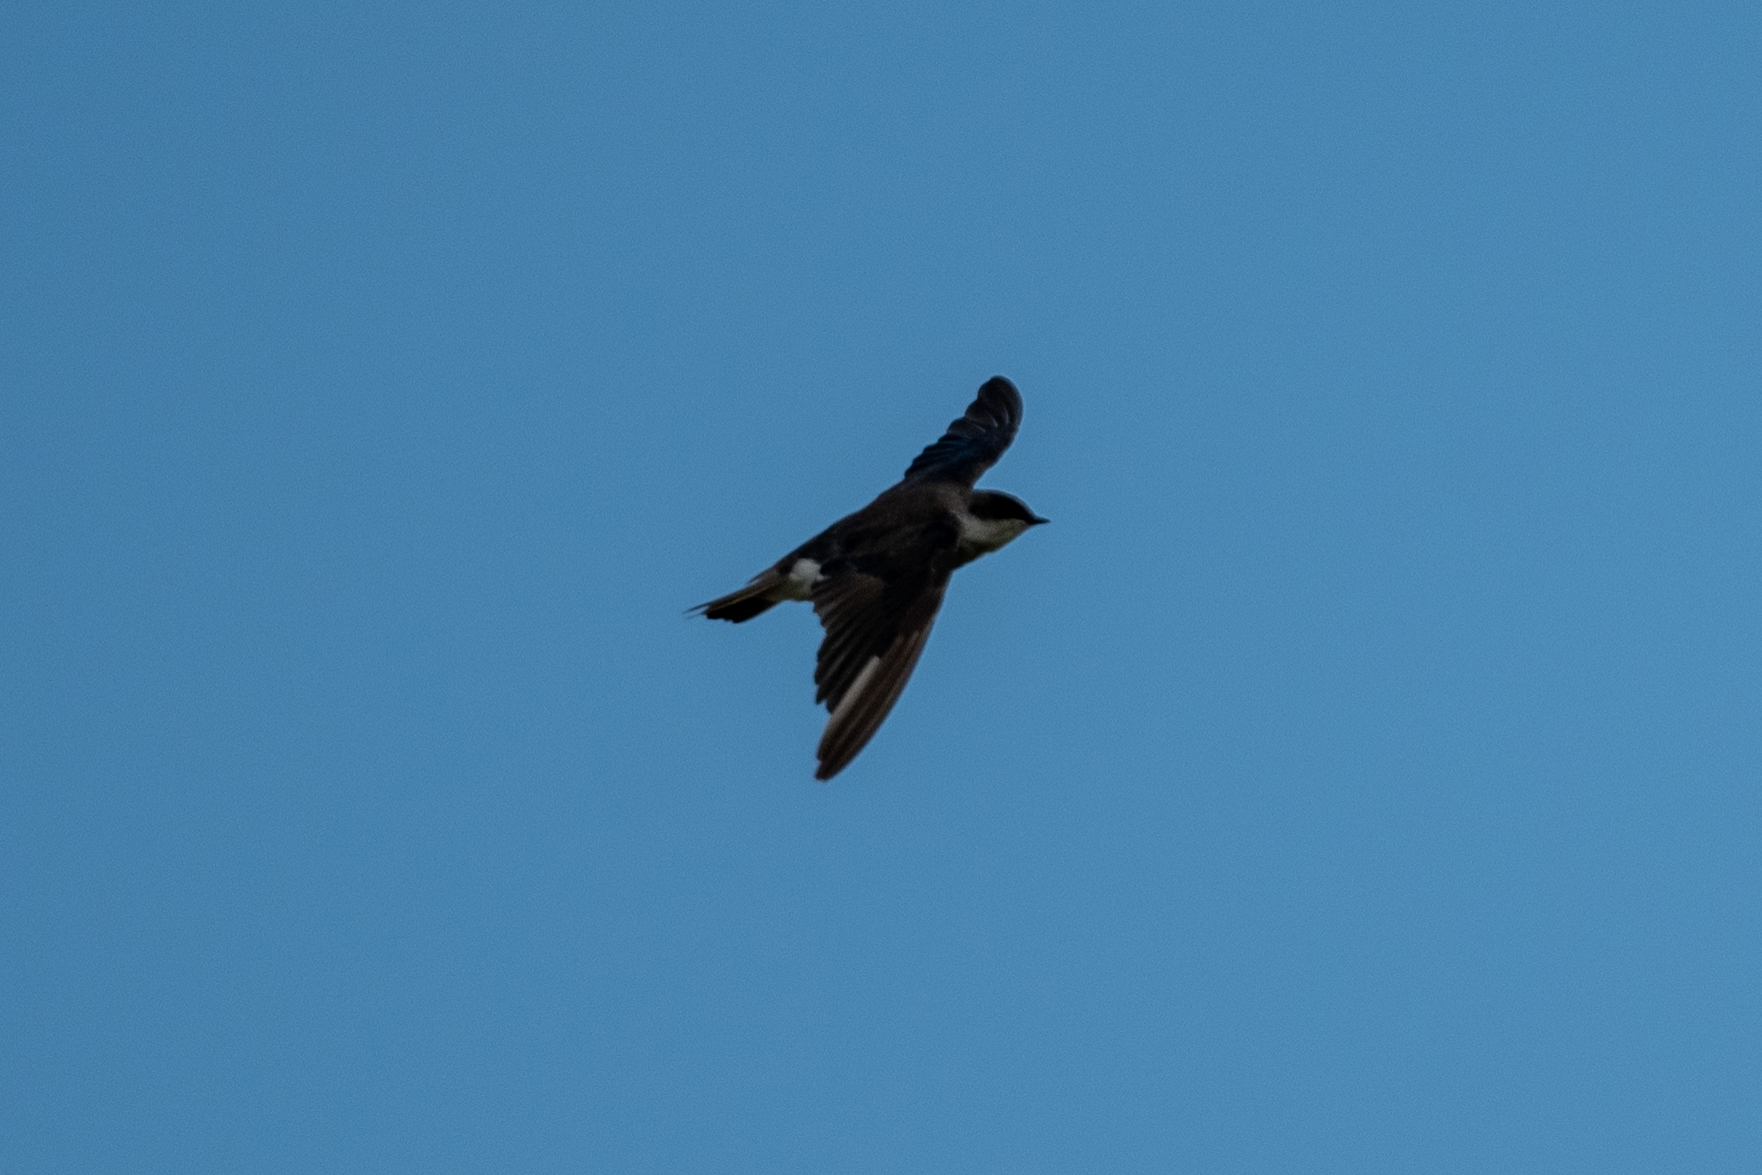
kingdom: Animalia
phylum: Chordata
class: Aves
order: Passeriformes
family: Hirundinidae
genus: Tachycineta
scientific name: Tachycineta bicolor
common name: Tree swallow
